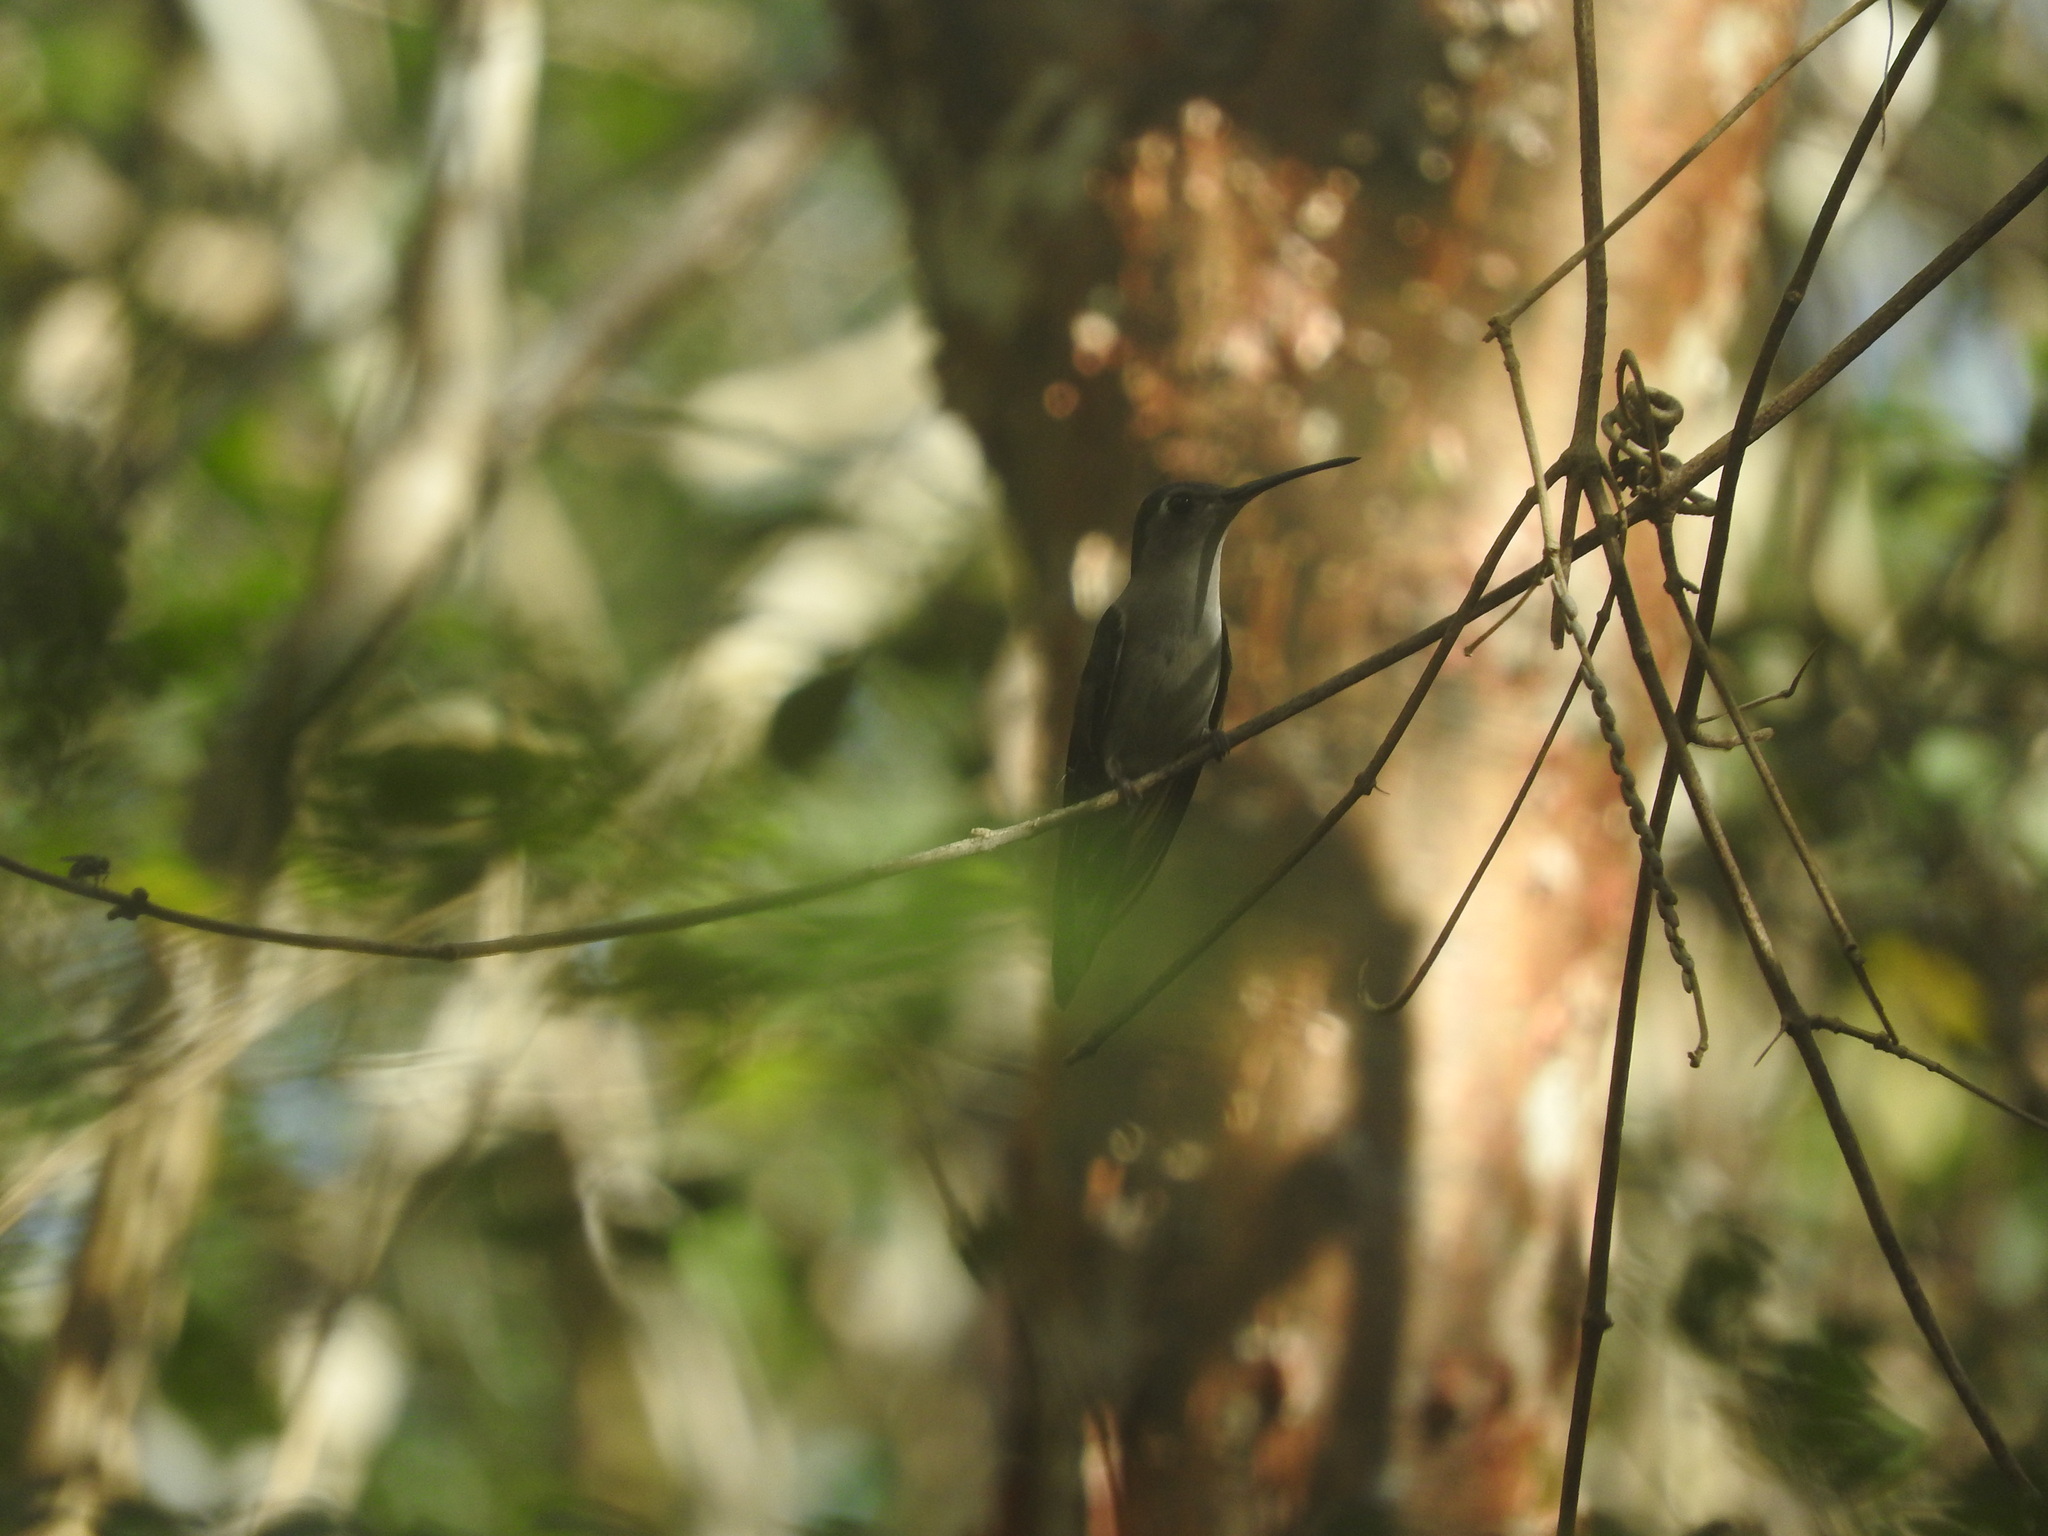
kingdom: Animalia
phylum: Chordata
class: Aves
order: Apodiformes
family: Trochilidae
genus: Pampa
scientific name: Pampa curvipennis
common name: Curve-winged sabrewing
